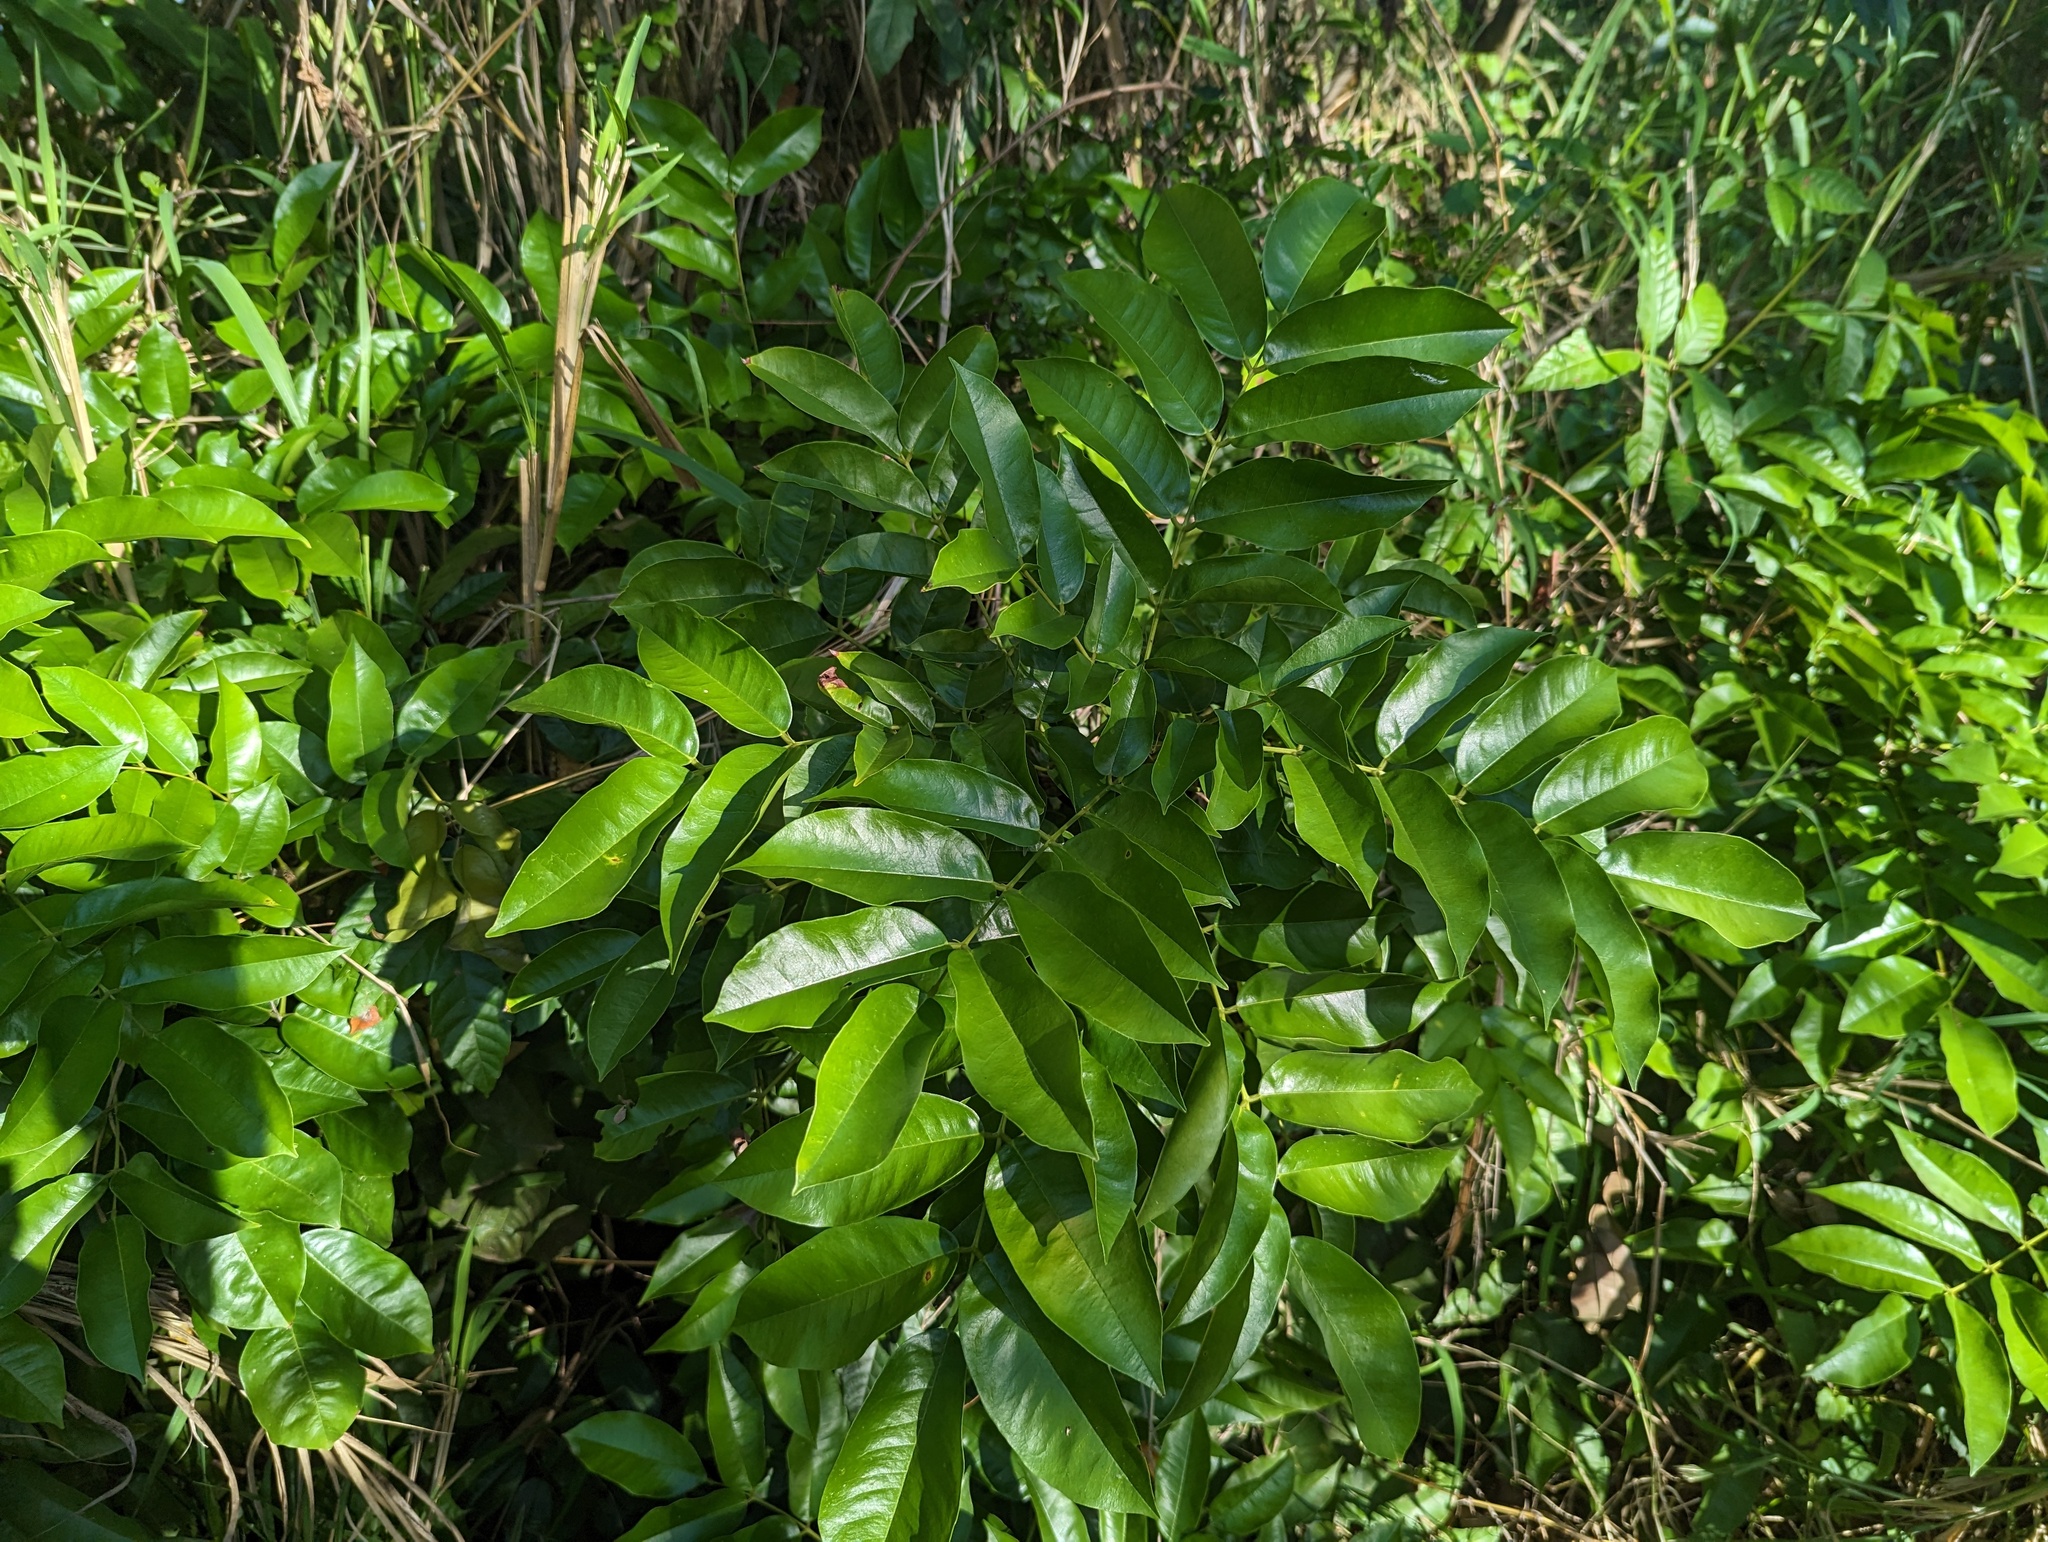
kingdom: Plantae
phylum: Tracheophyta
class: Magnoliopsida
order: Fabales
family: Fabaceae
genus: Andira
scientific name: Andira inermis
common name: Angelin
